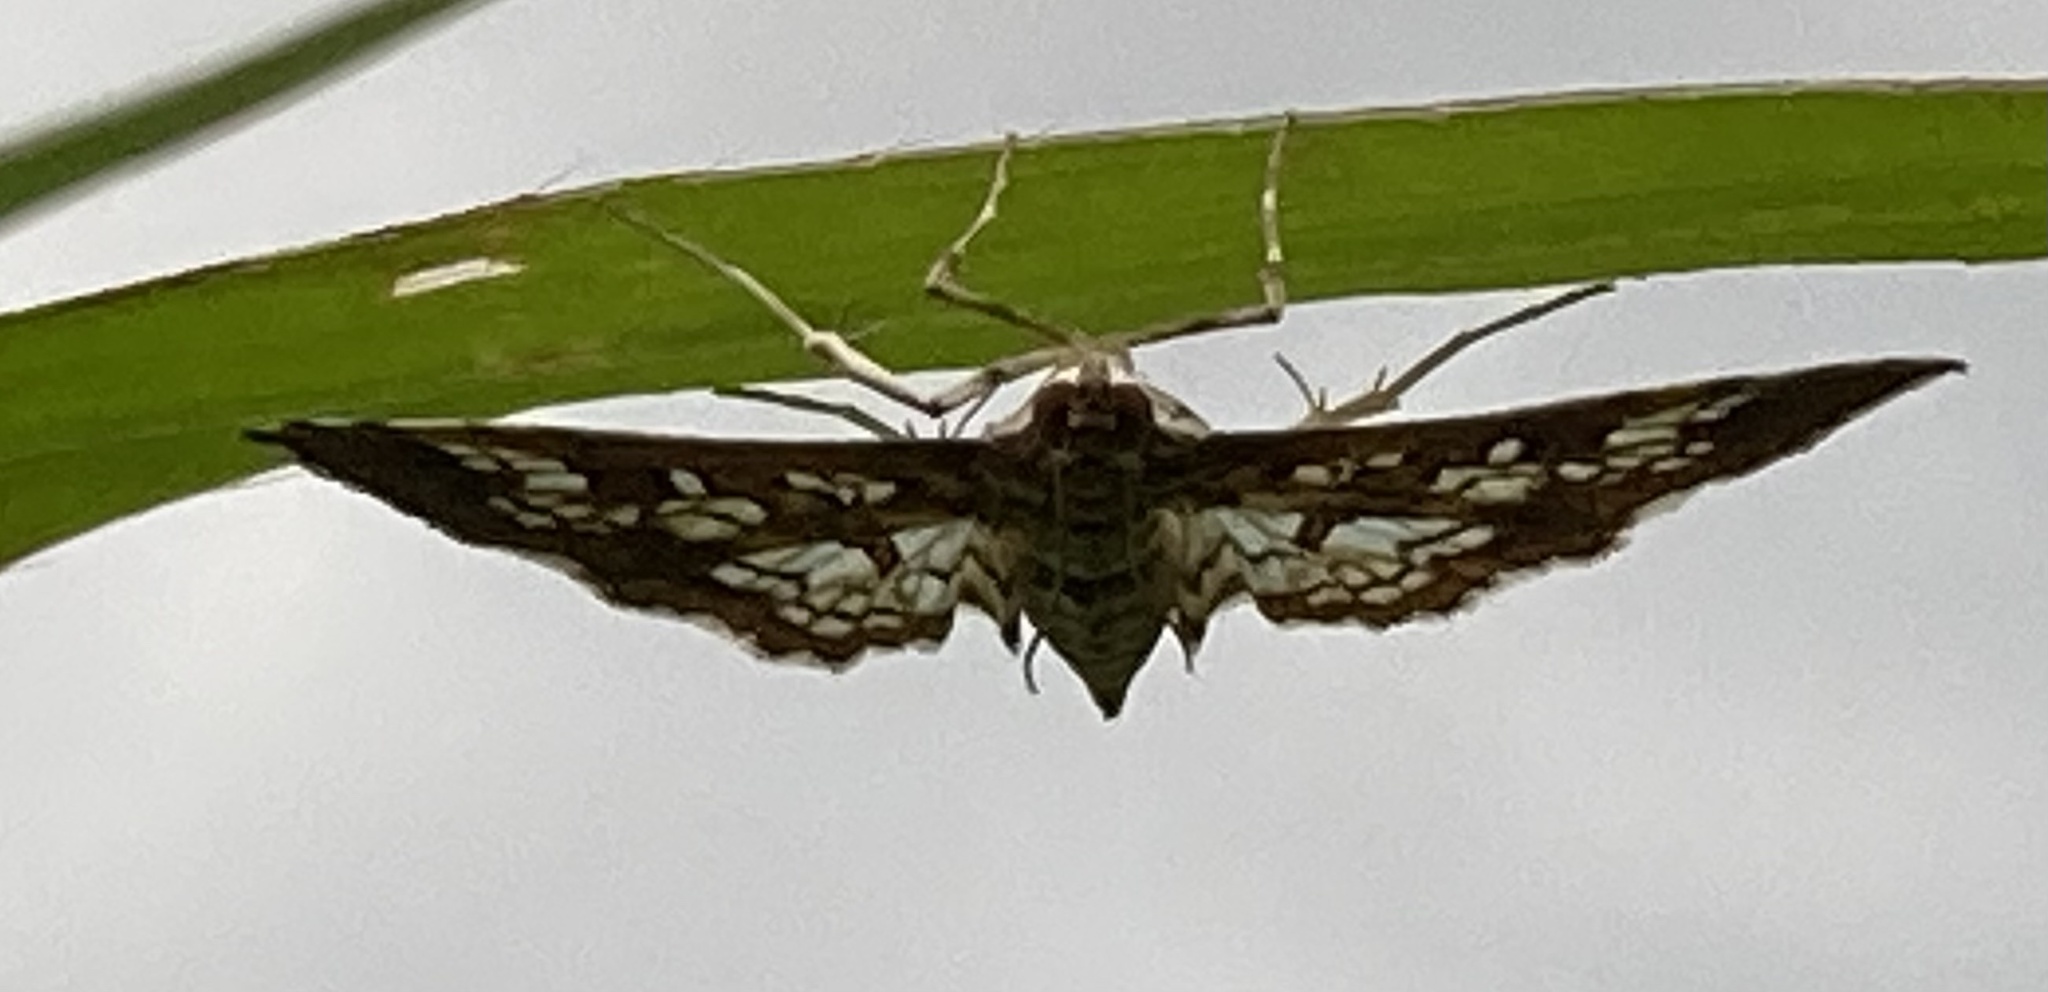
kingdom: Animalia
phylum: Arthropoda
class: Insecta
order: Lepidoptera
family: Crambidae
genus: Samea
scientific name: Samea ecclesialis
